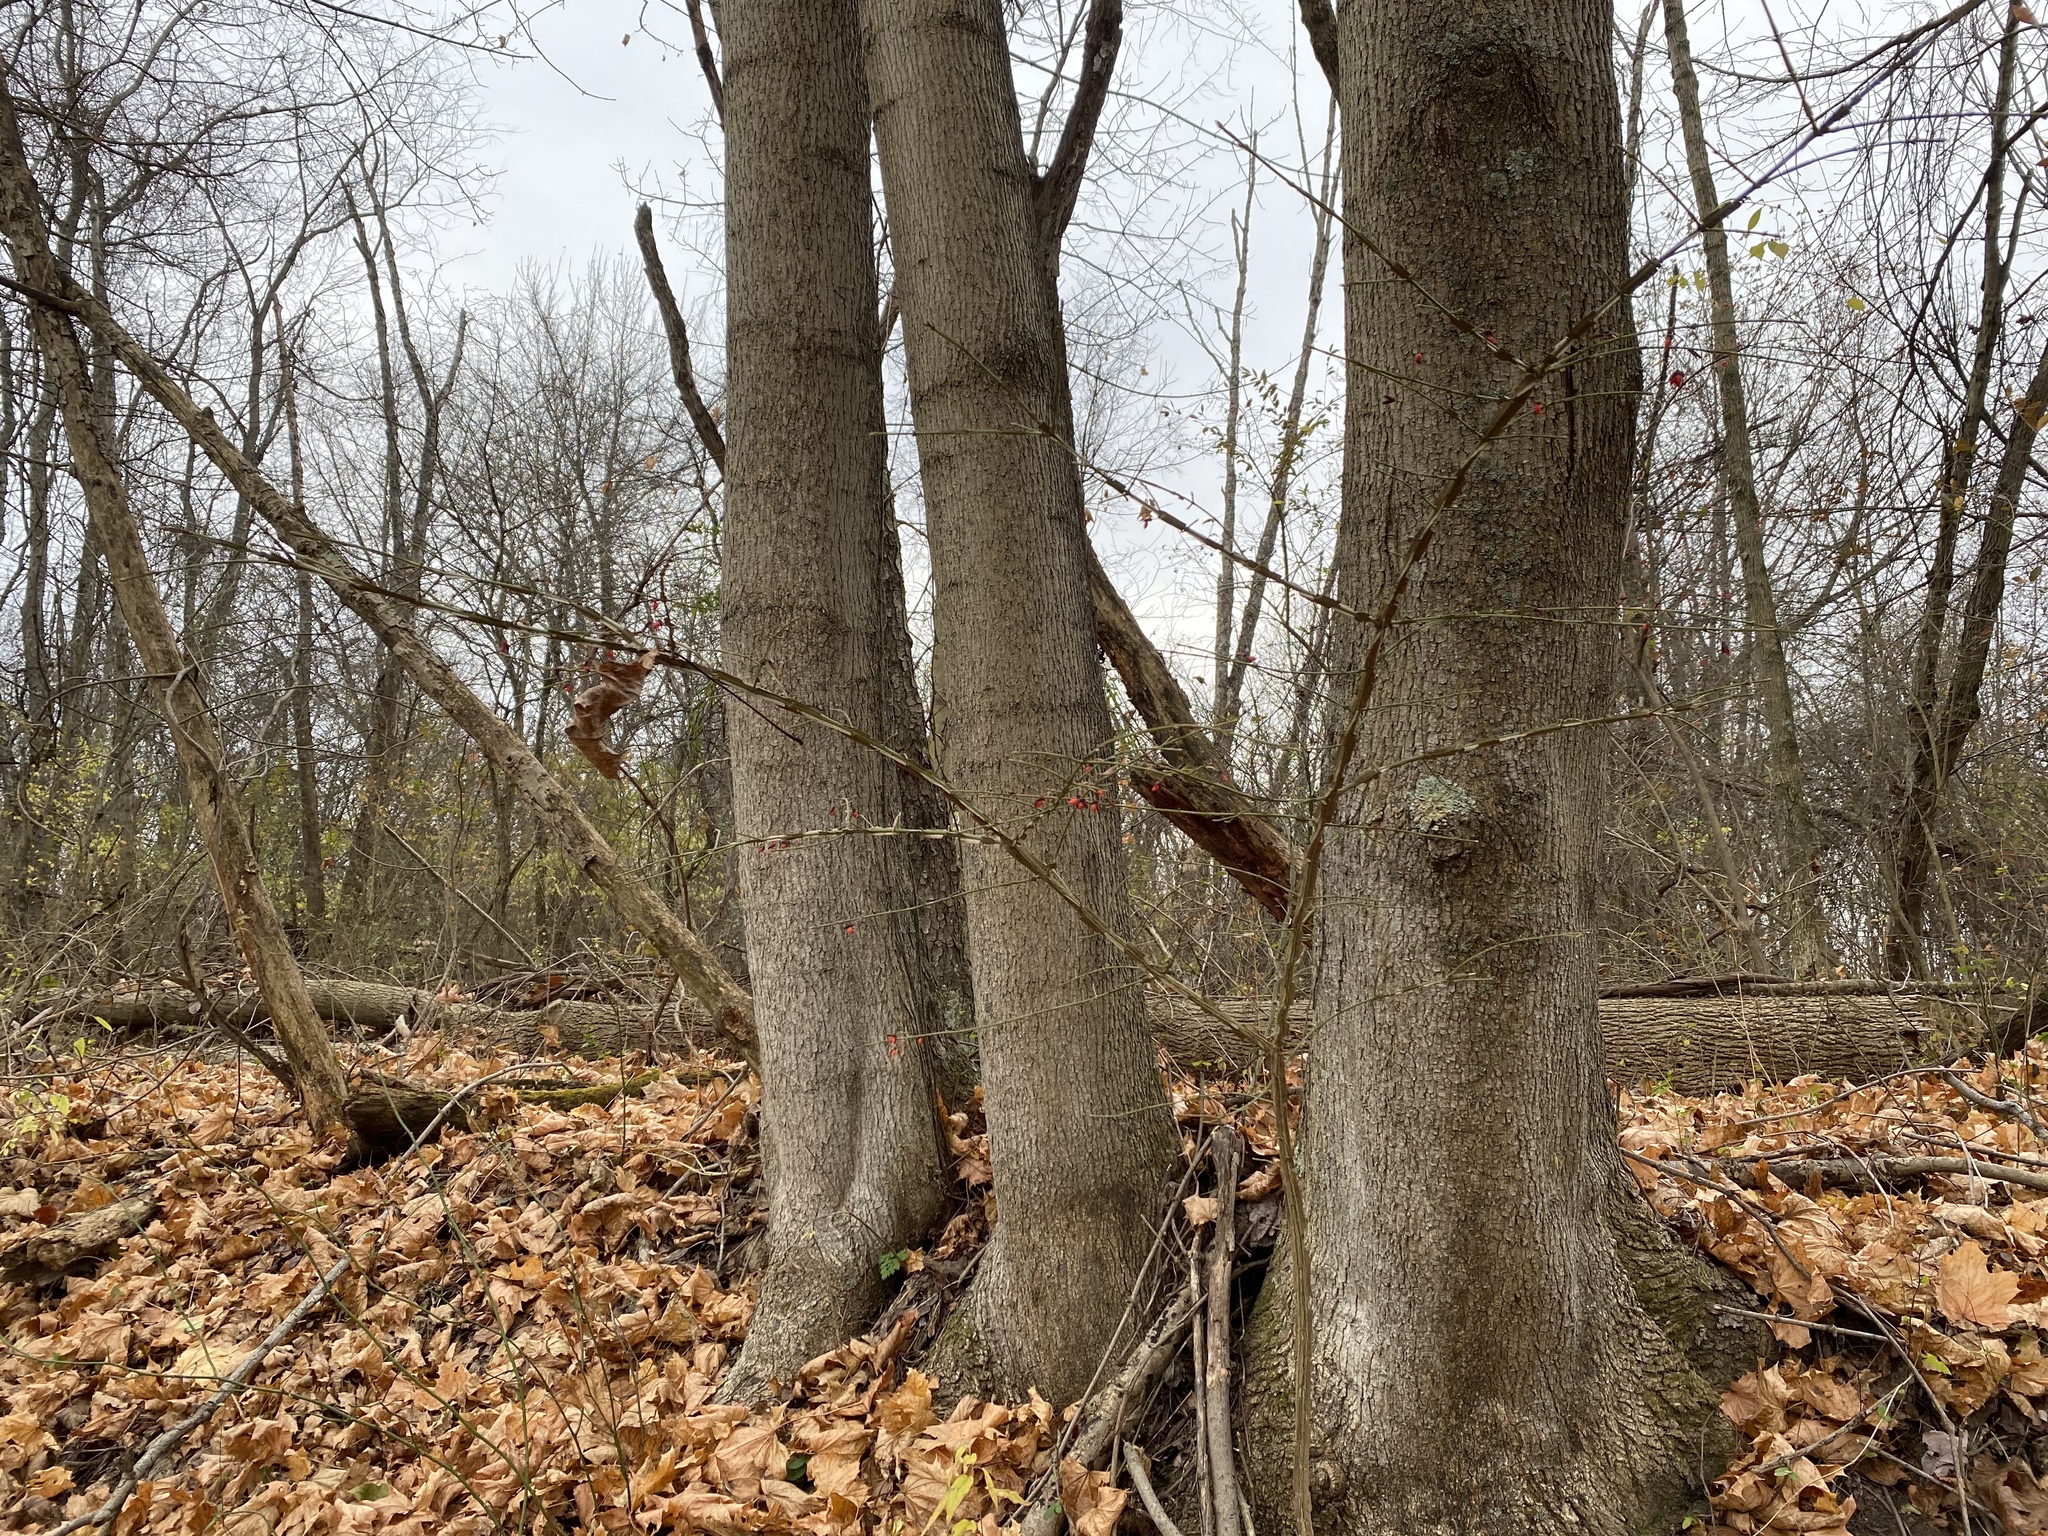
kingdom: Plantae
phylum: Tracheophyta
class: Magnoliopsida
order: Celastrales
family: Celastraceae
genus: Euonymus
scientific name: Euonymus alatus
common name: Winged euonymus
